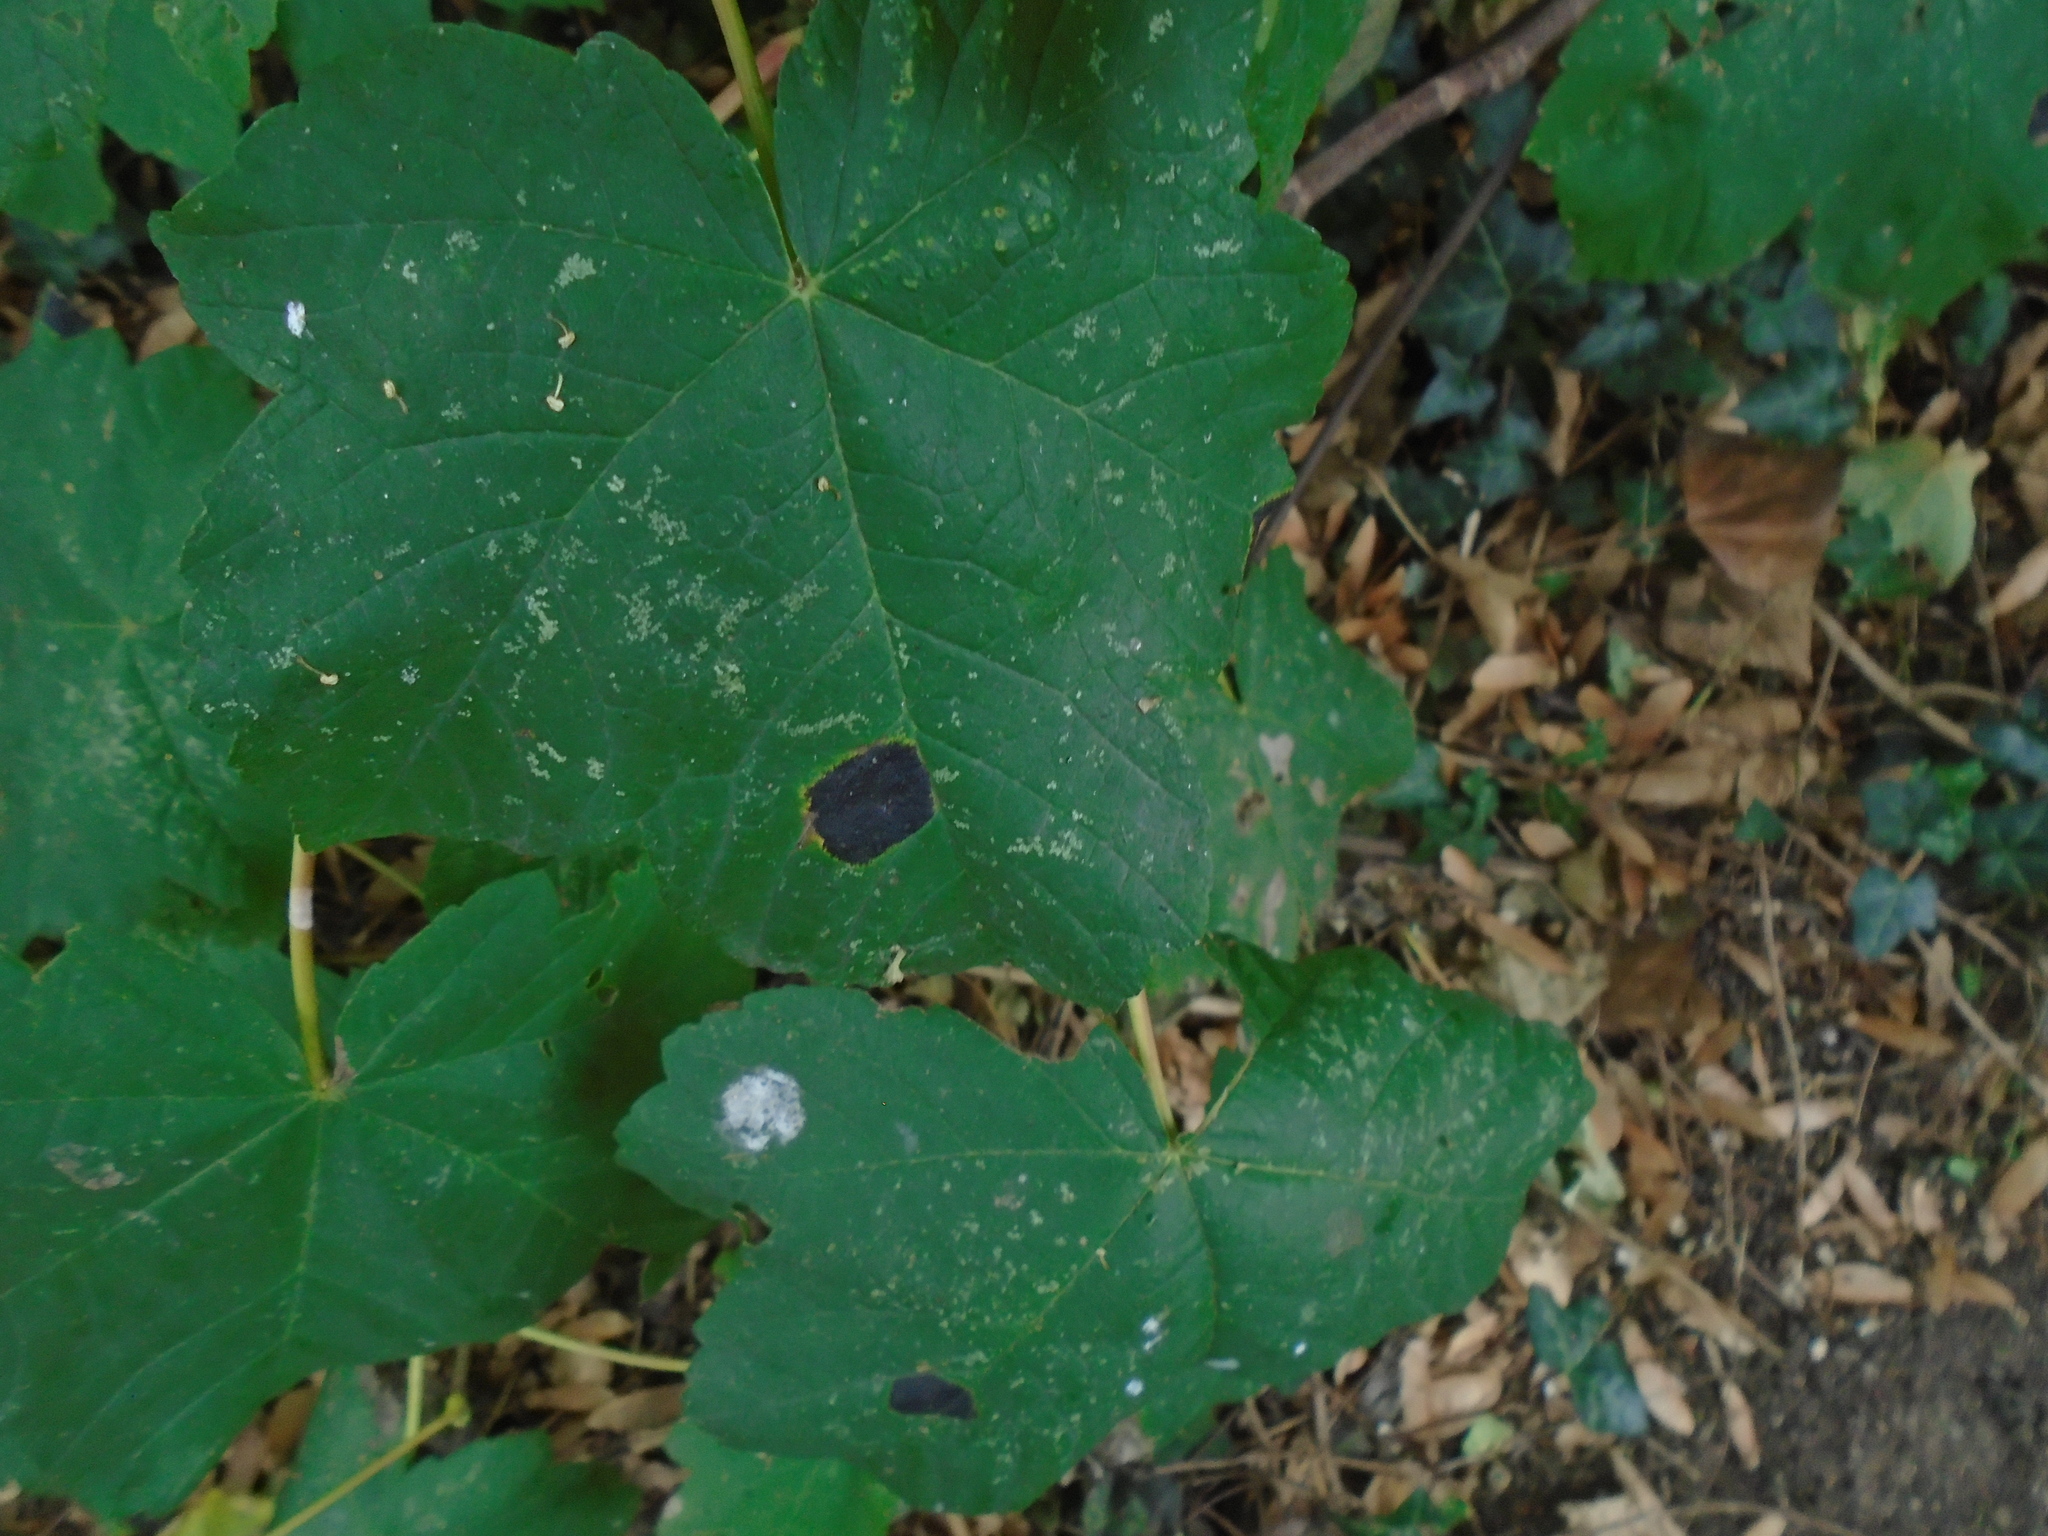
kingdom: Fungi
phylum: Ascomycota
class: Leotiomycetes
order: Rhytismatales
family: Rhytismataceae
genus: Rhytisma
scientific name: Rhytisma acerinum
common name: European tar spot
